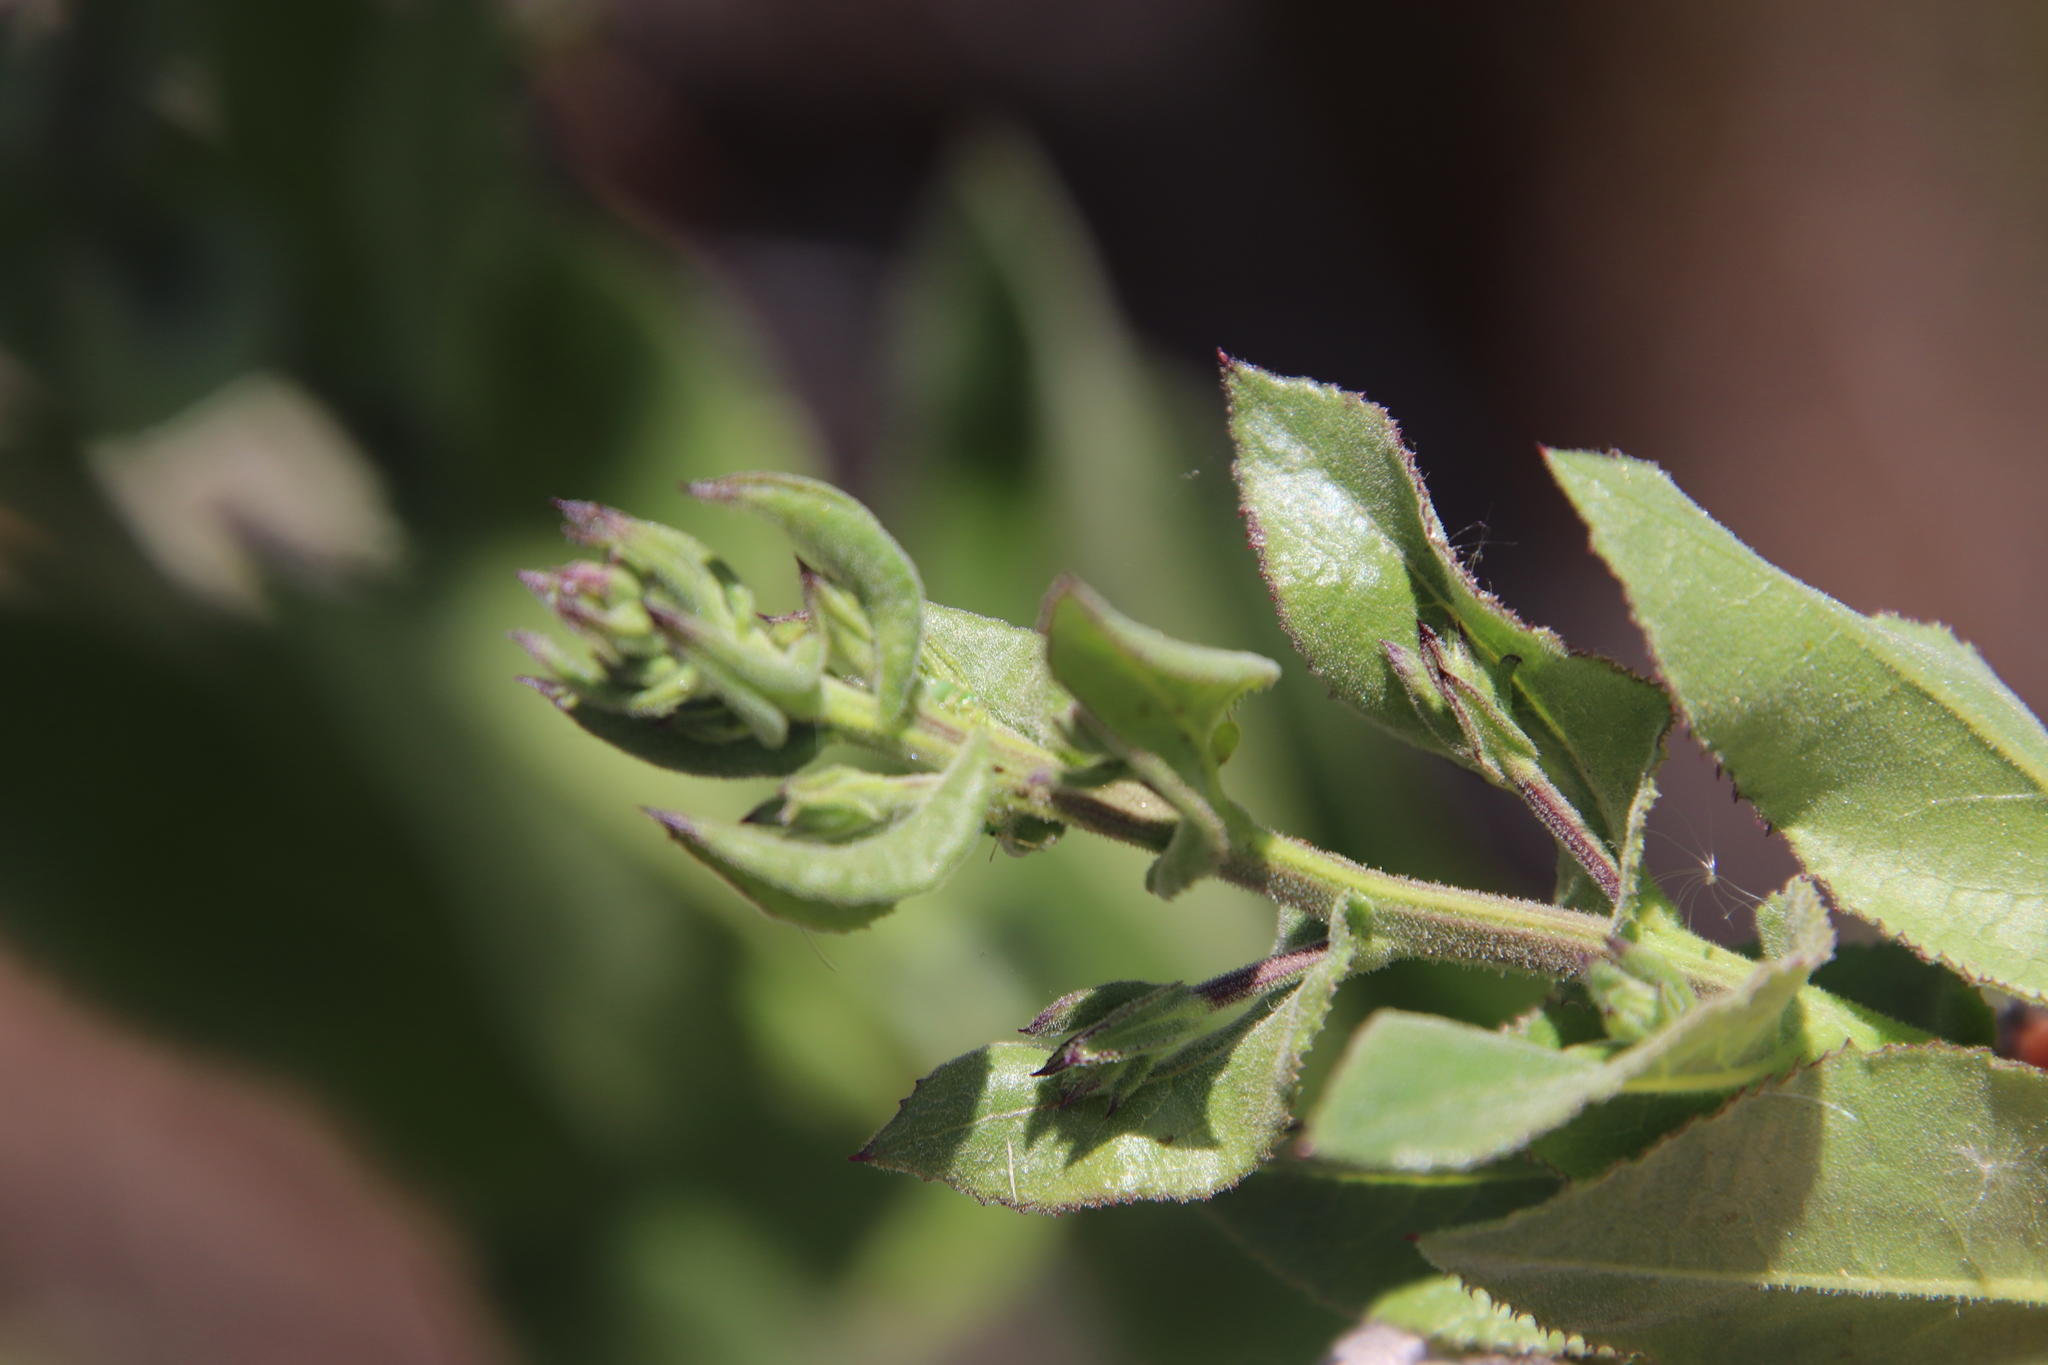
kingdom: Plantae
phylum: Tracheophyta
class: Magnoliopsida
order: Asterales
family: Asteraceae
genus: Acourtia
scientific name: Acourtia microcephala
